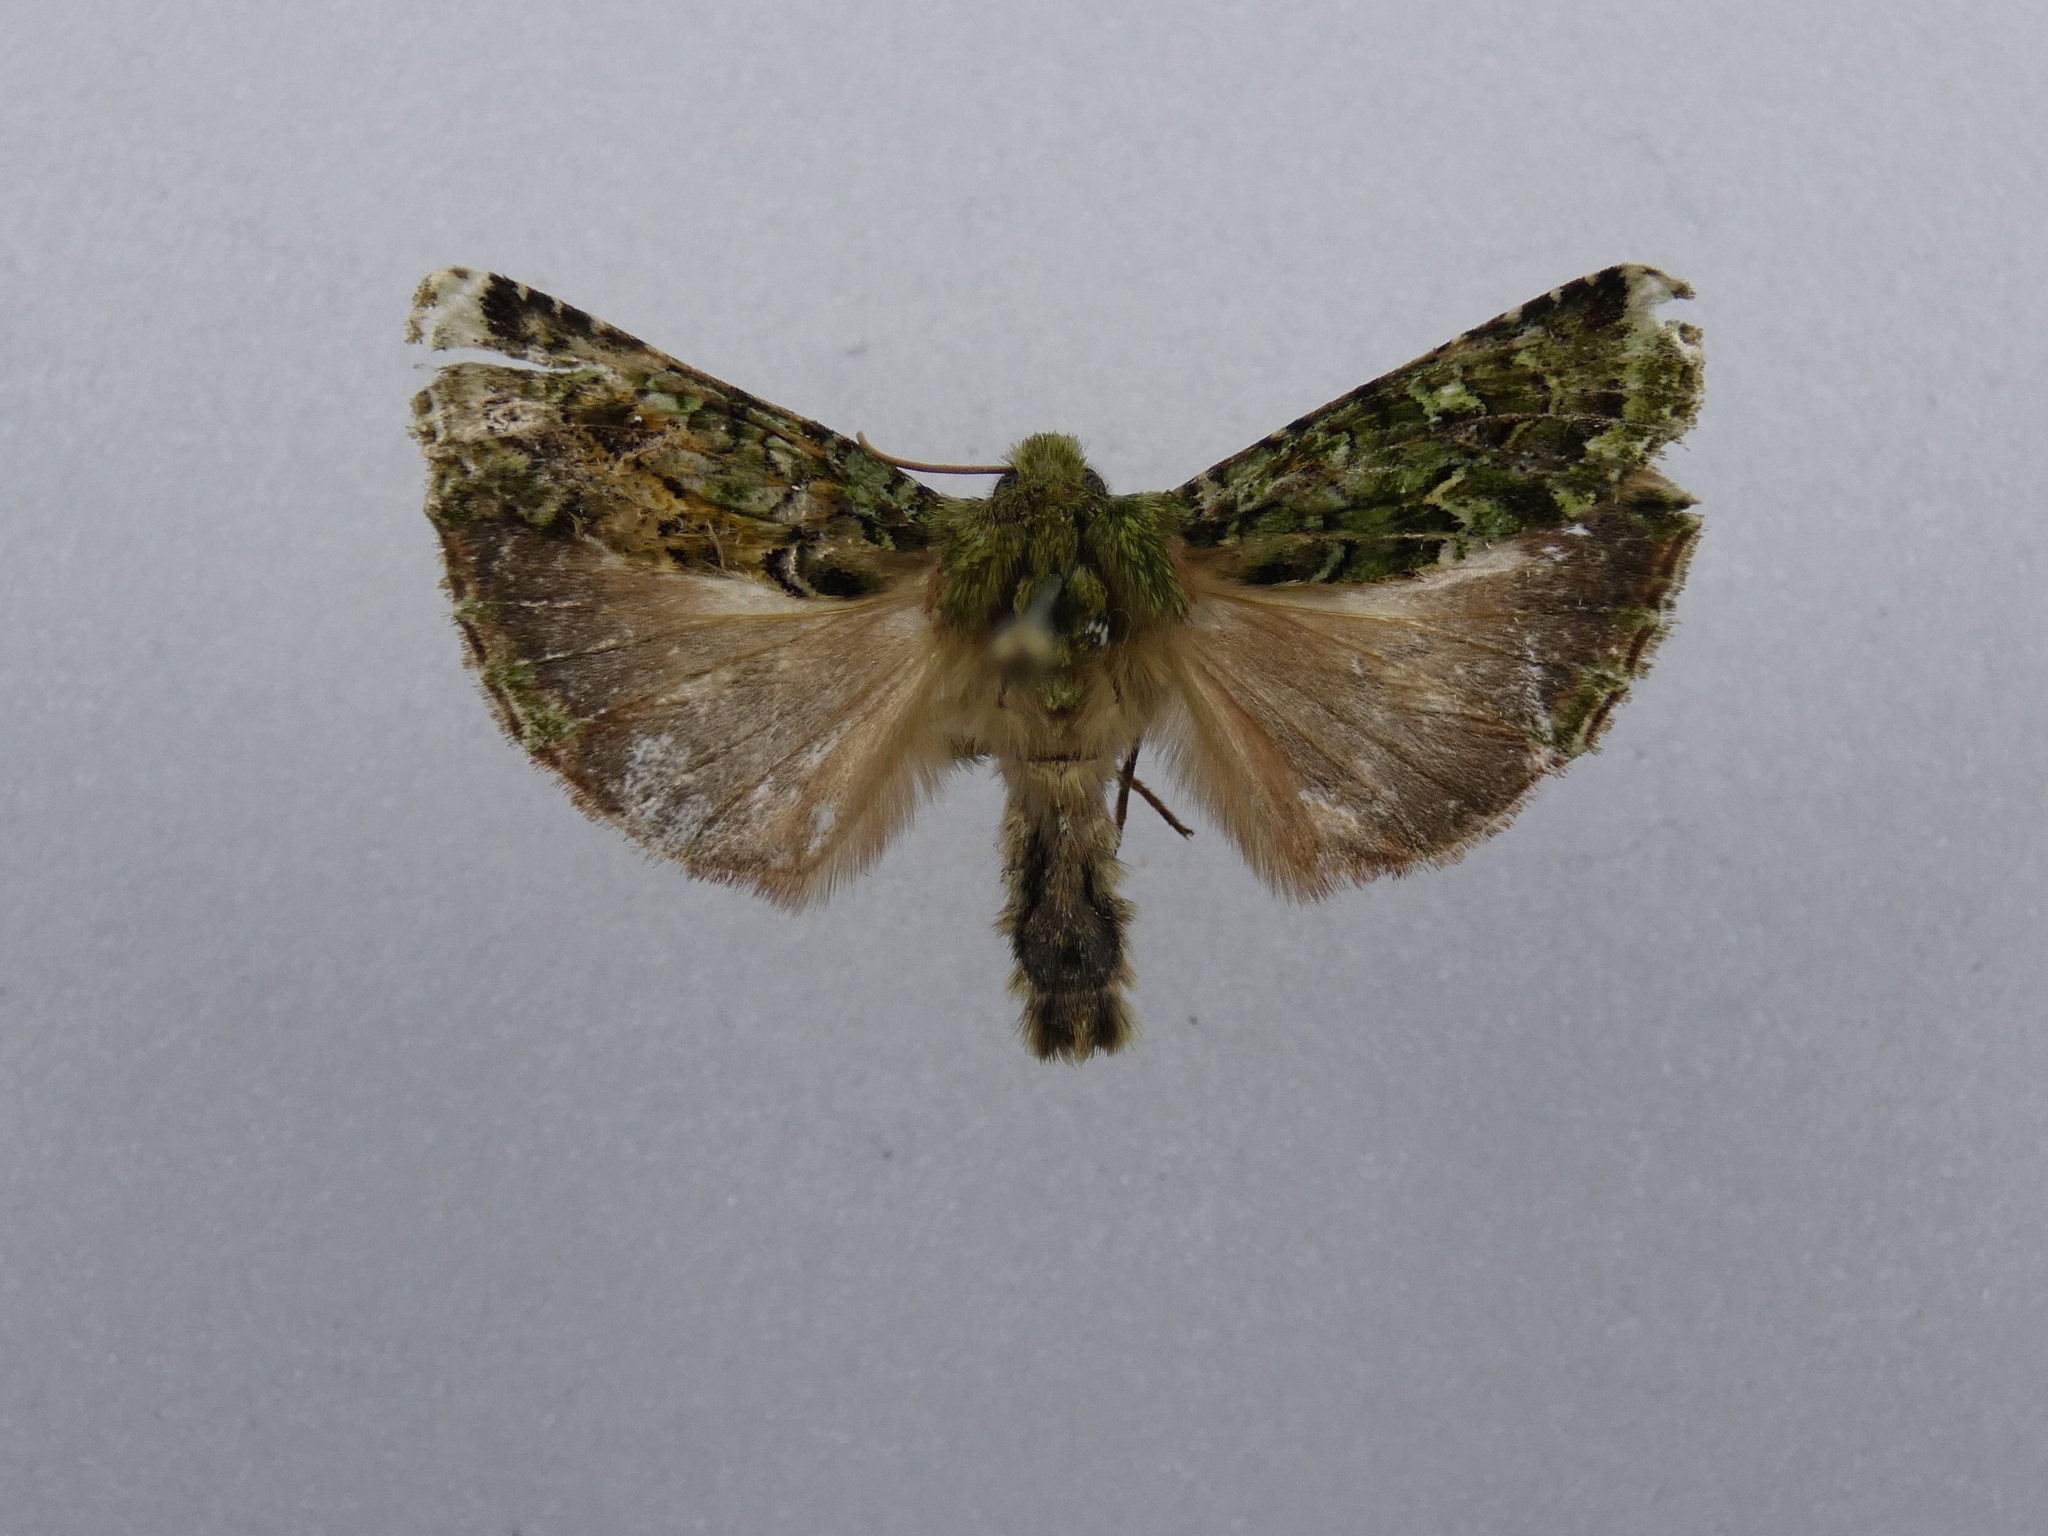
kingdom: Animalia
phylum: Arthropoda
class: Insecta
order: Lepidoptera
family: Noctuidae
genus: Feredayia
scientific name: Feredayia grammosa
